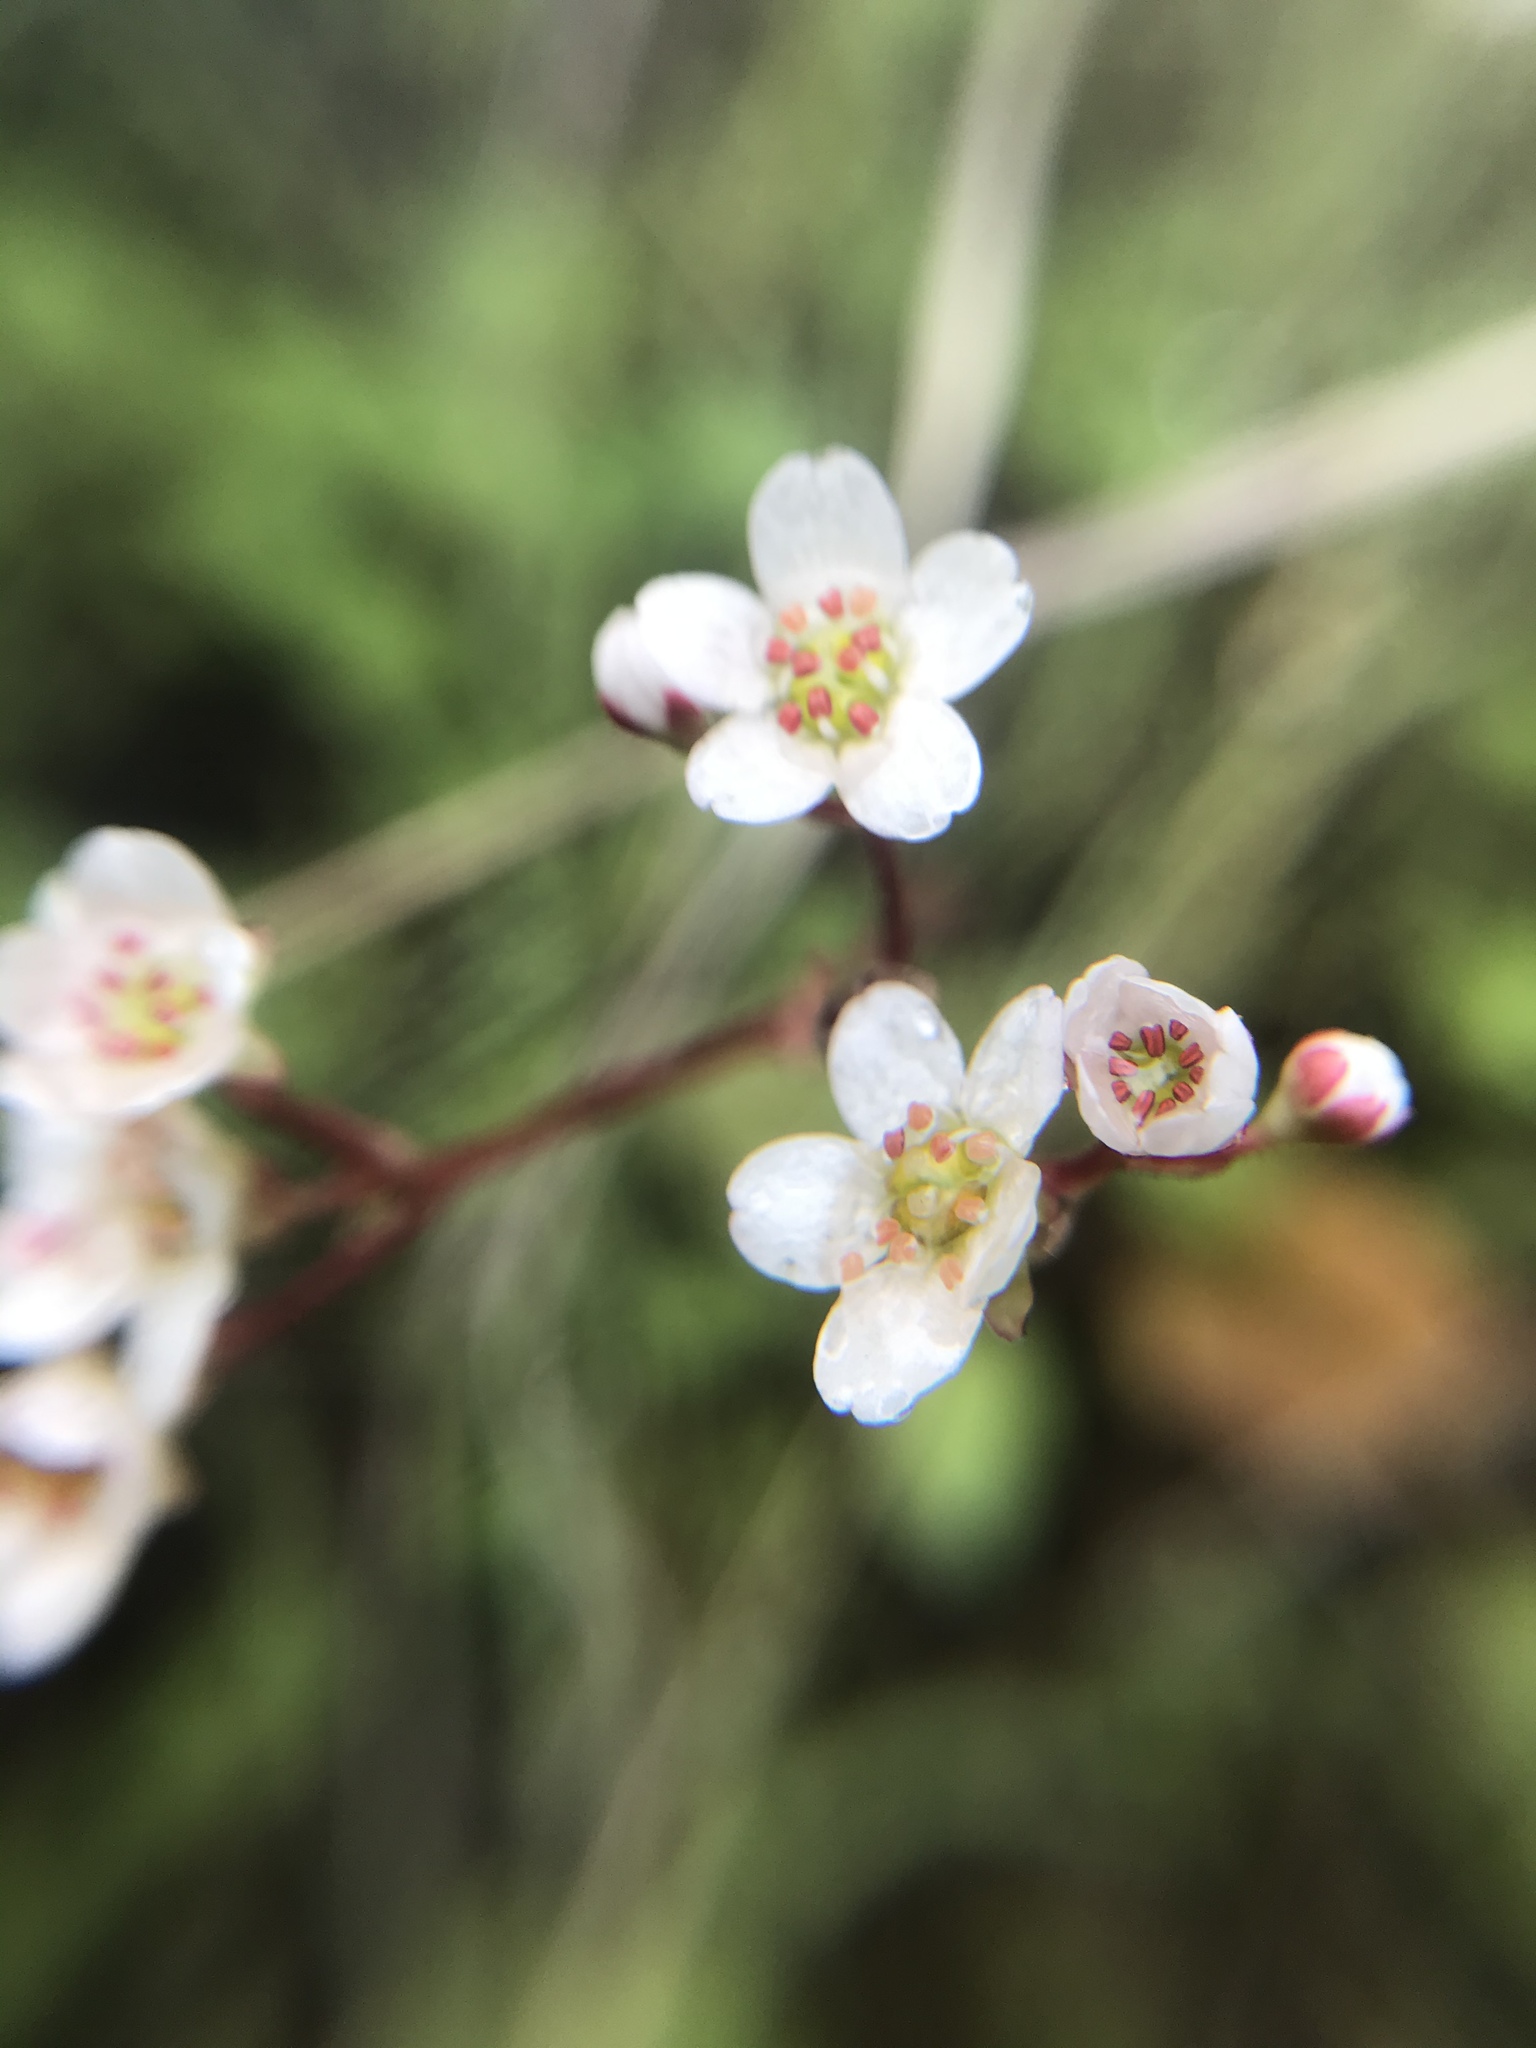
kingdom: Plantae
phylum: Tracheophyta
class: Magnoliopsida
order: Saxifragales
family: Saxifragaceae
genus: Micranthes
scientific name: Micranthes californica
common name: California saxifrage
